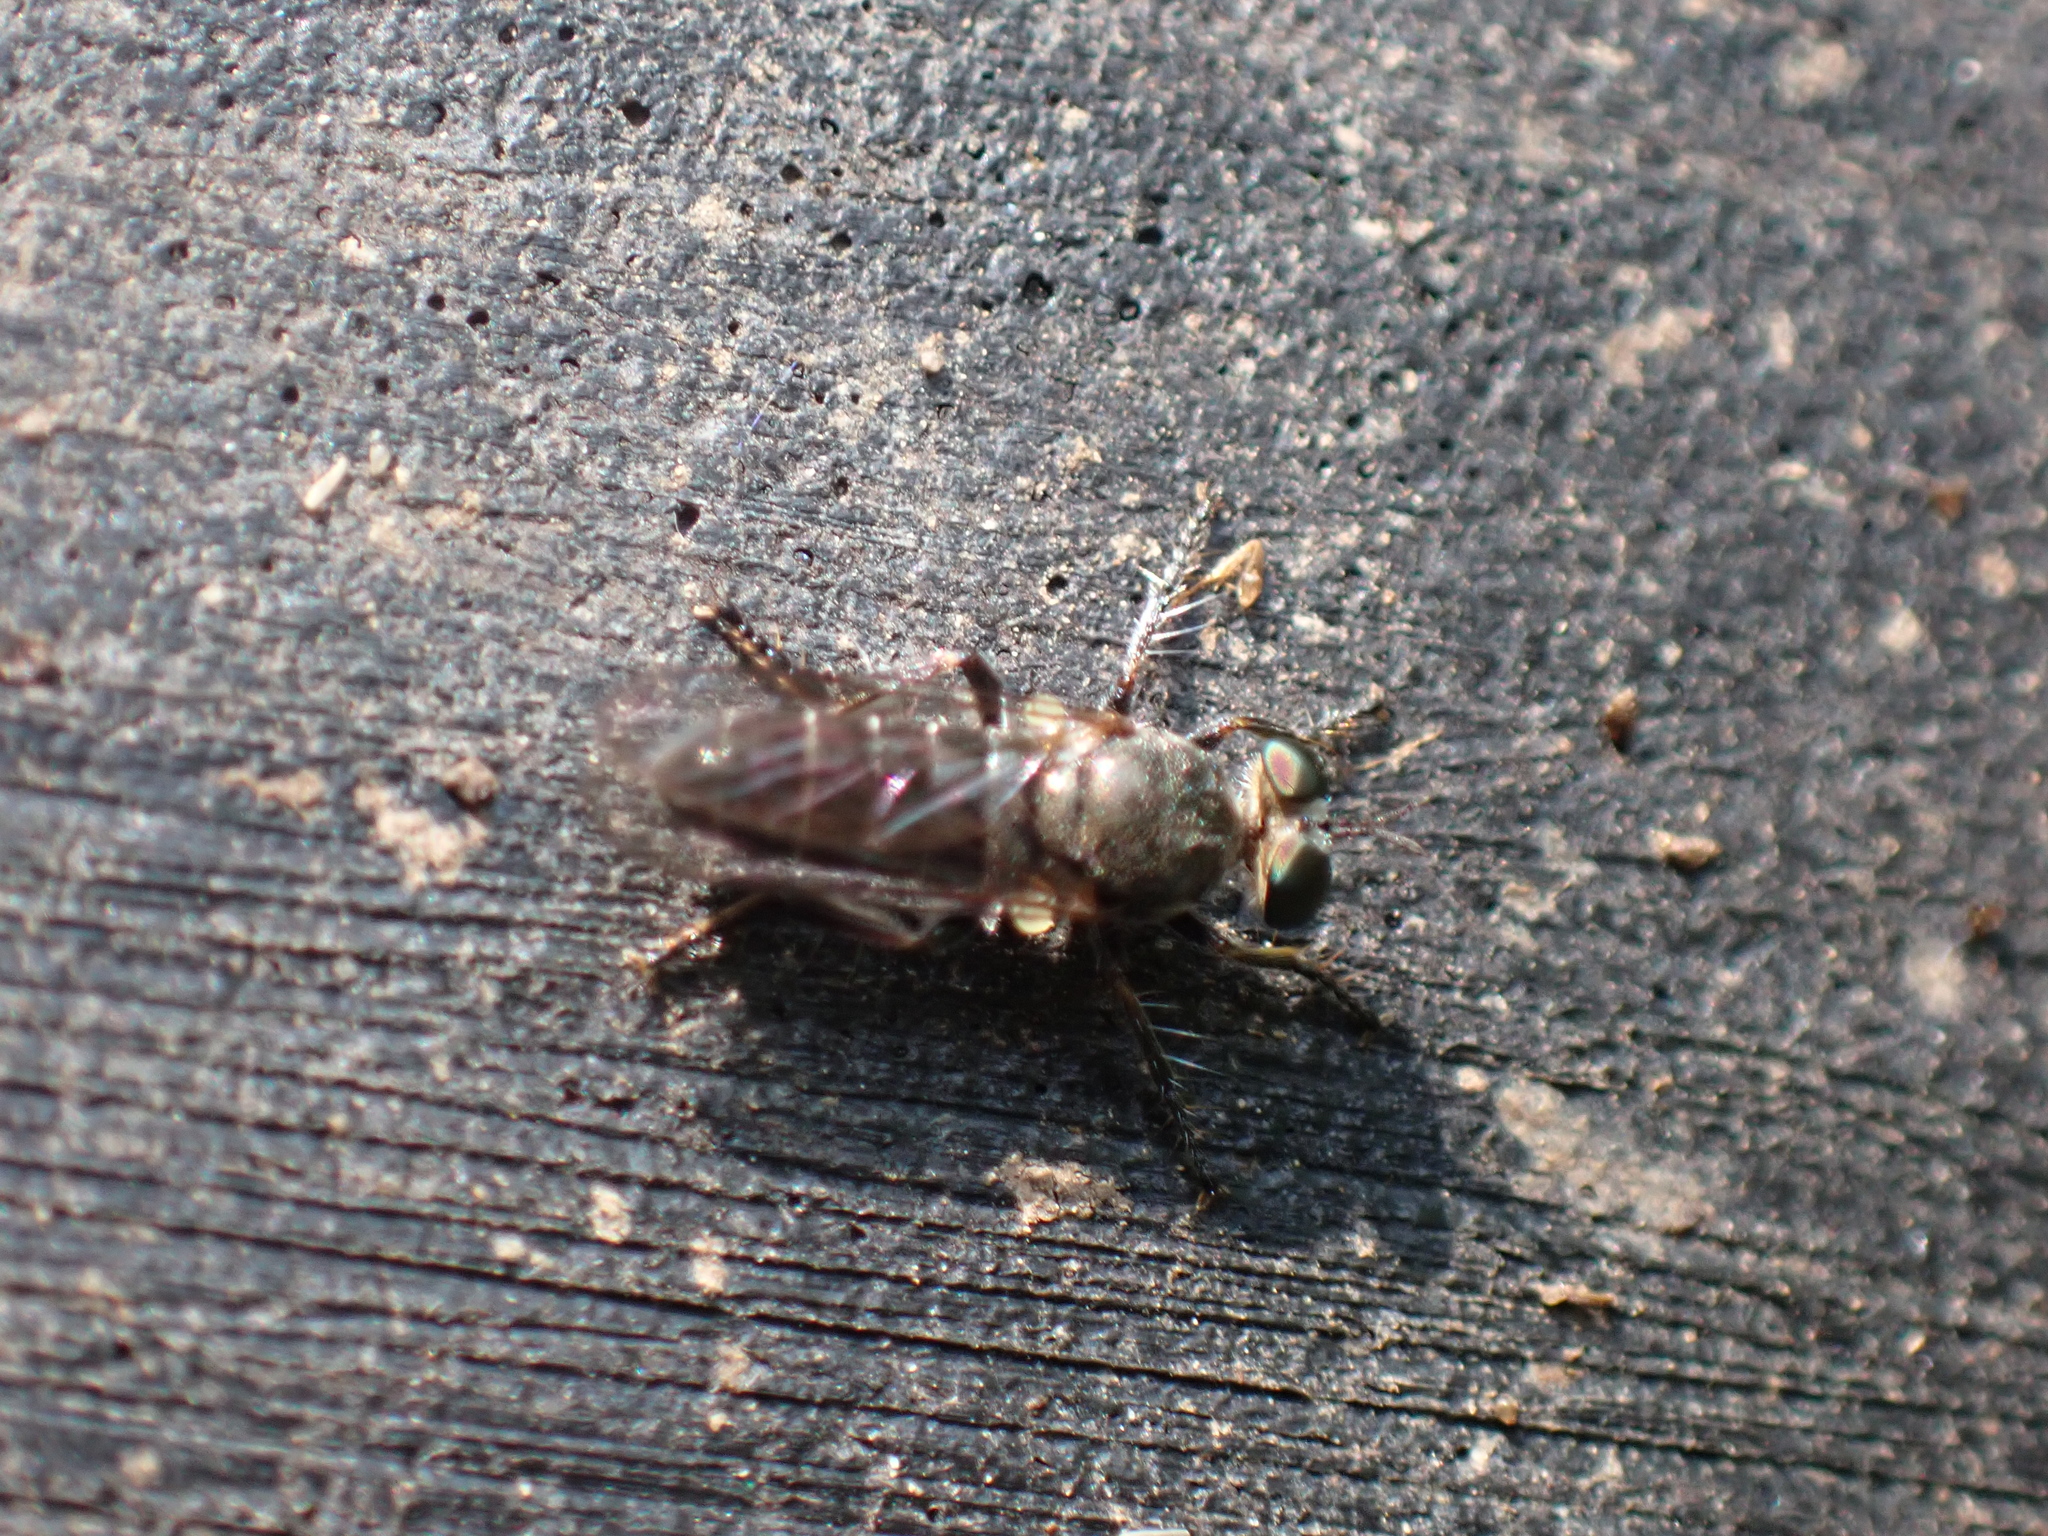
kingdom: Animalia
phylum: Arthropoda
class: Insecta
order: Diptera
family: Asilidae
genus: Atomosia
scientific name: Atomosia puella
